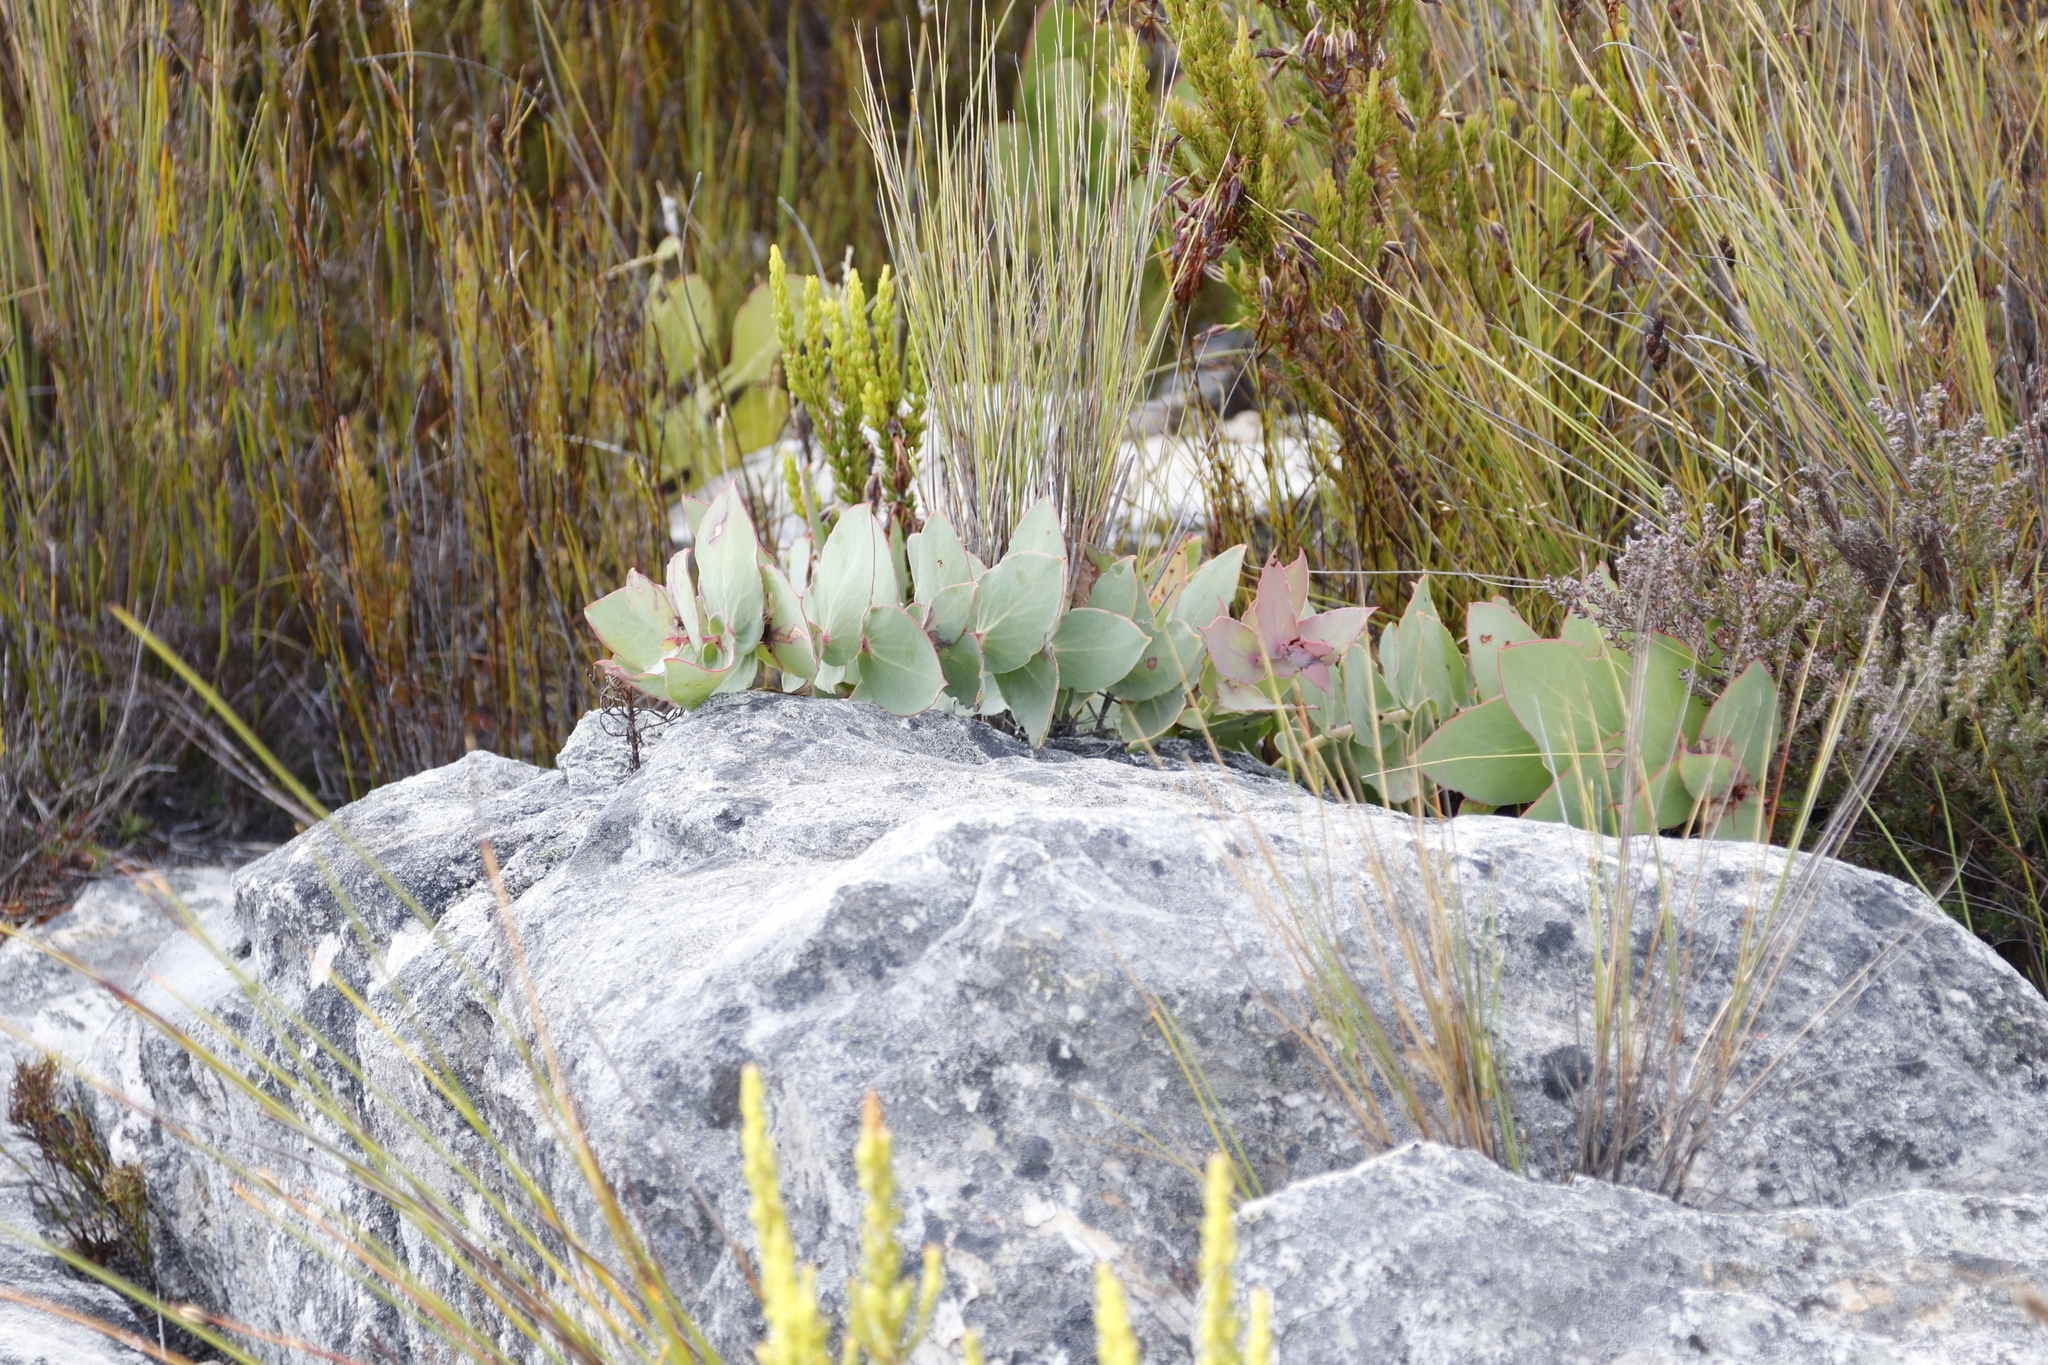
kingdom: Plantae
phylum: Tracheophyta
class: Magnoliopsida
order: Proteales
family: Proteaceae
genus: Protea
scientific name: Protea amplexicaulis
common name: Clasping-leaf sugarbush
